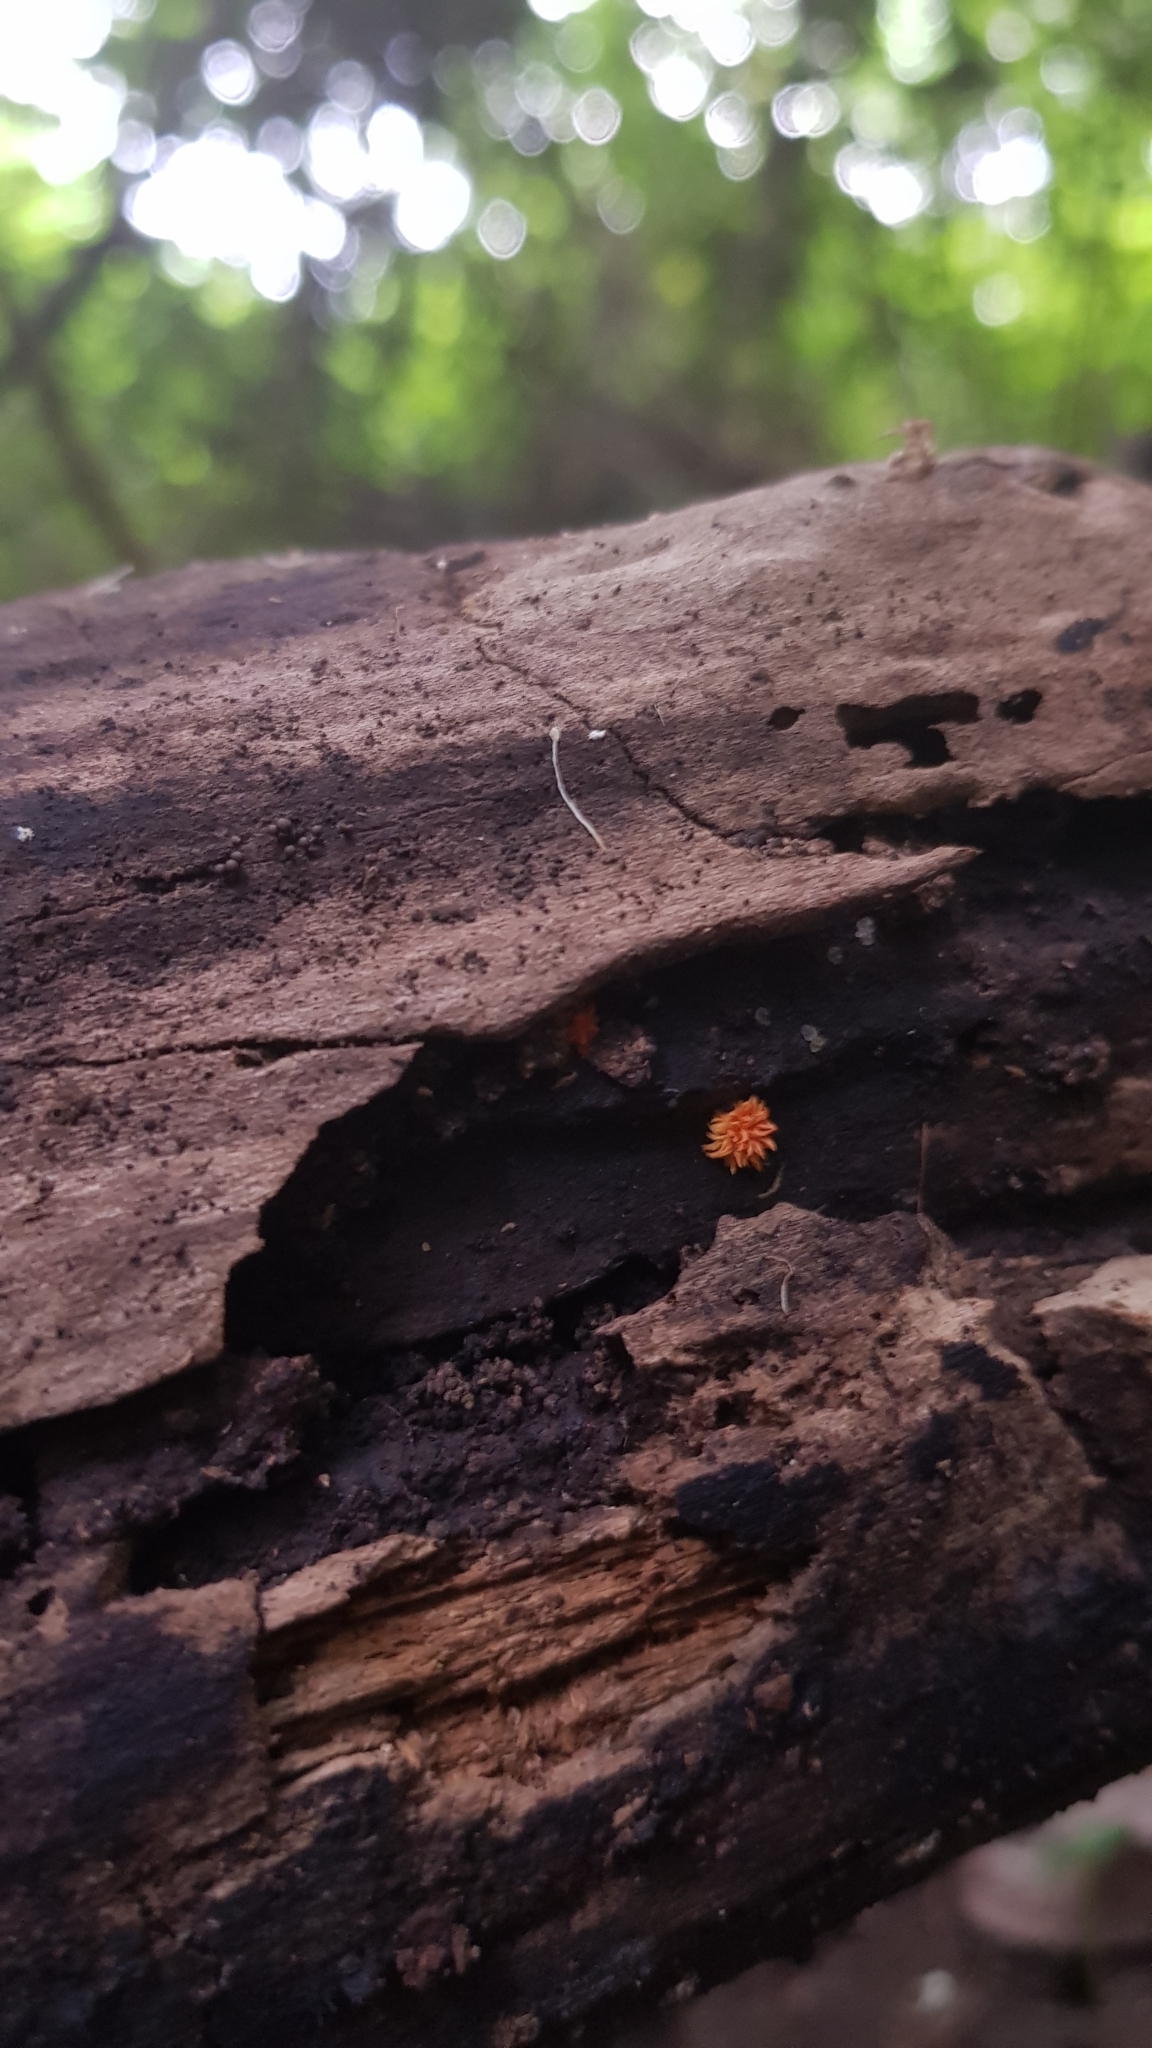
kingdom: Fungi
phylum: Basidiomycota
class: Agaricomycetes
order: Agaricales
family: Physalacriaceae
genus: Cyptotrama
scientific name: Cyptotrama asprata
